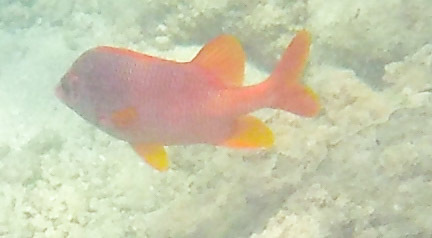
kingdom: Animalia
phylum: Chordata
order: Beryciformes
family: Holocentridae
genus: Sargocentron
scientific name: Sargocentron spiniferum
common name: Giant squirrelfish
